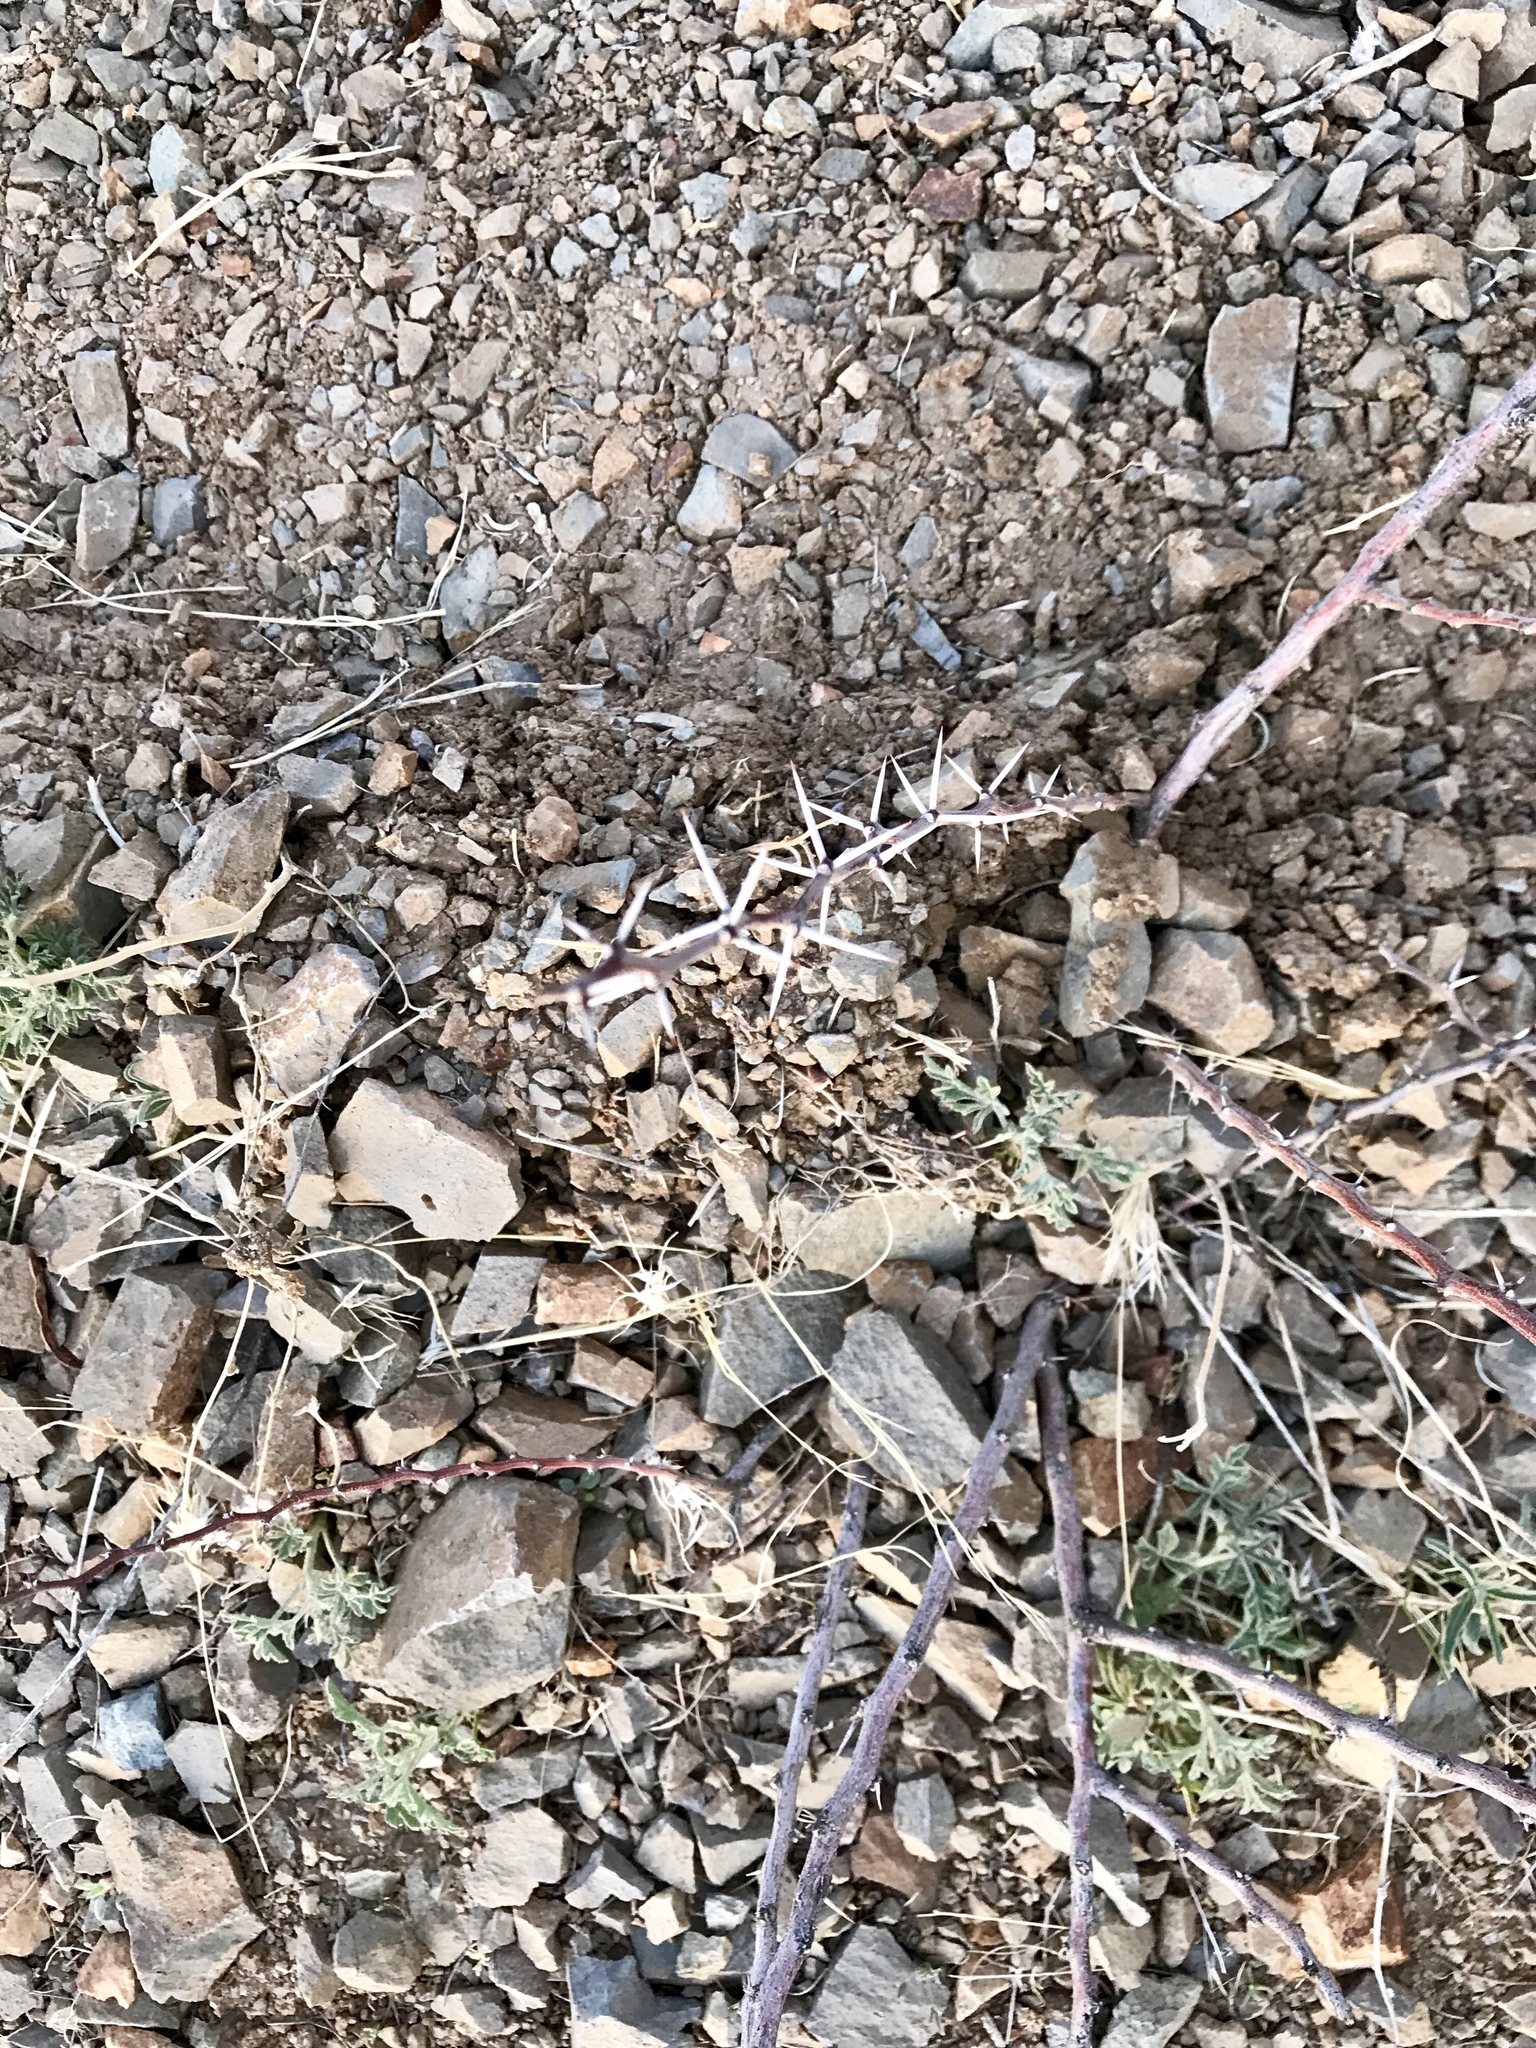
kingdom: Plantae
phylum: Tracheophyta
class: Magnoliopsida
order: Fabales
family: Fabaceae
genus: Vachellia
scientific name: Vachellia constricta
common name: Mescat acacia
